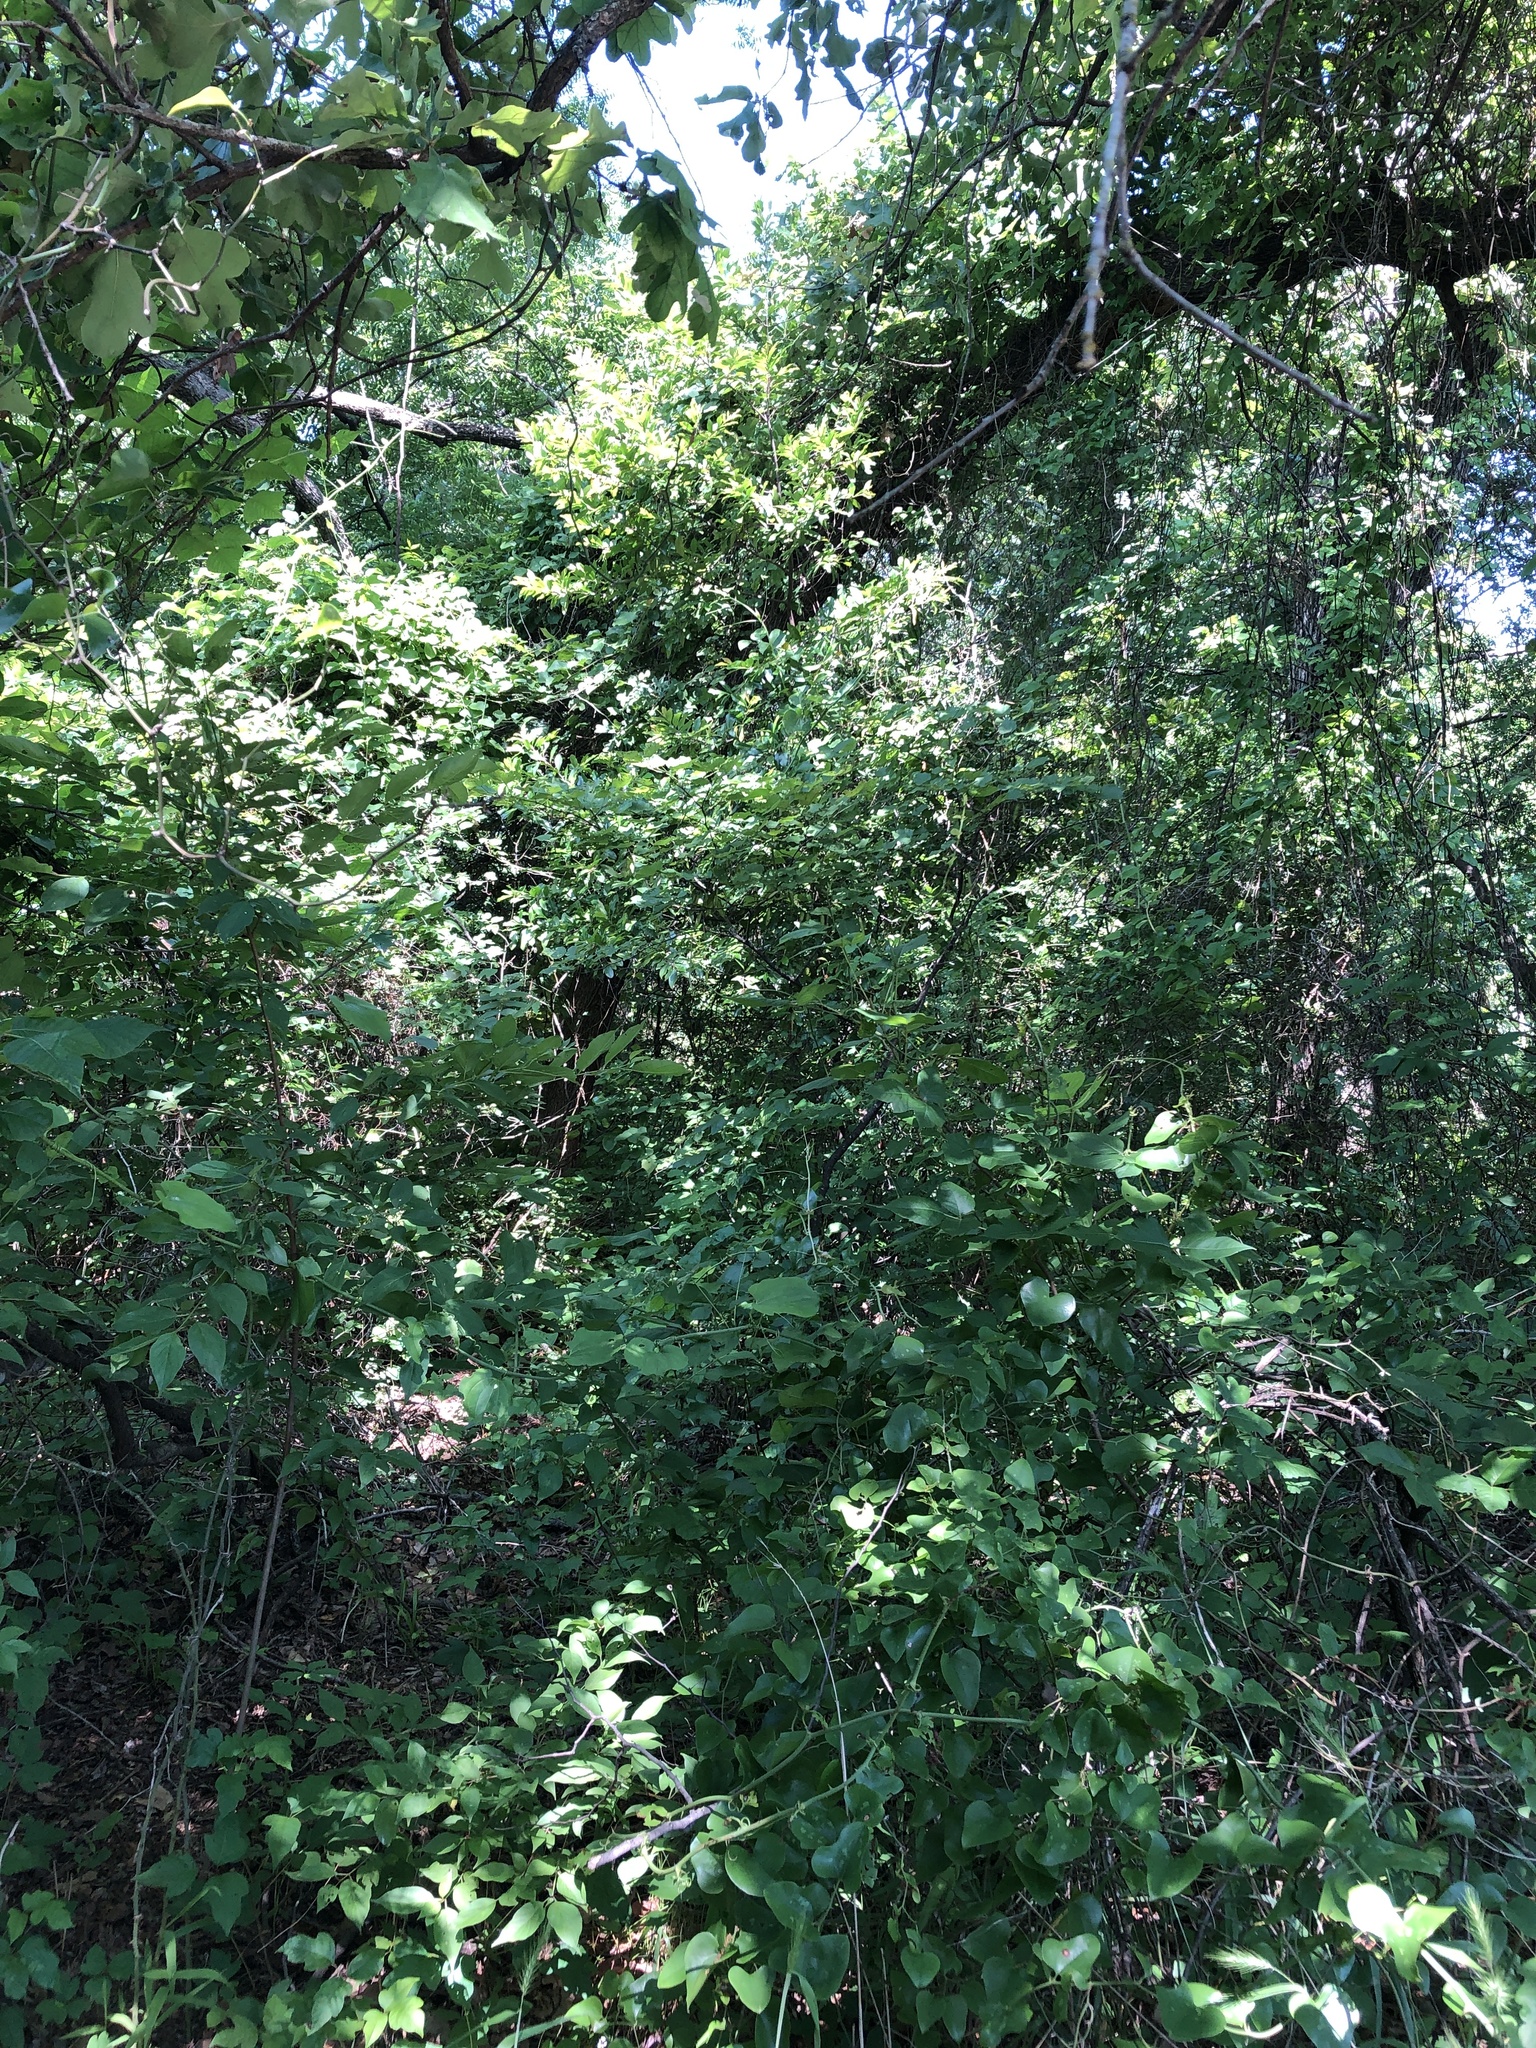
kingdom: Animalia
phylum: Chordata
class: Aves
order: Passeriformes
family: Vireonidae
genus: Vireo
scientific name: Vireo griseus
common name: White-eyed vireo
